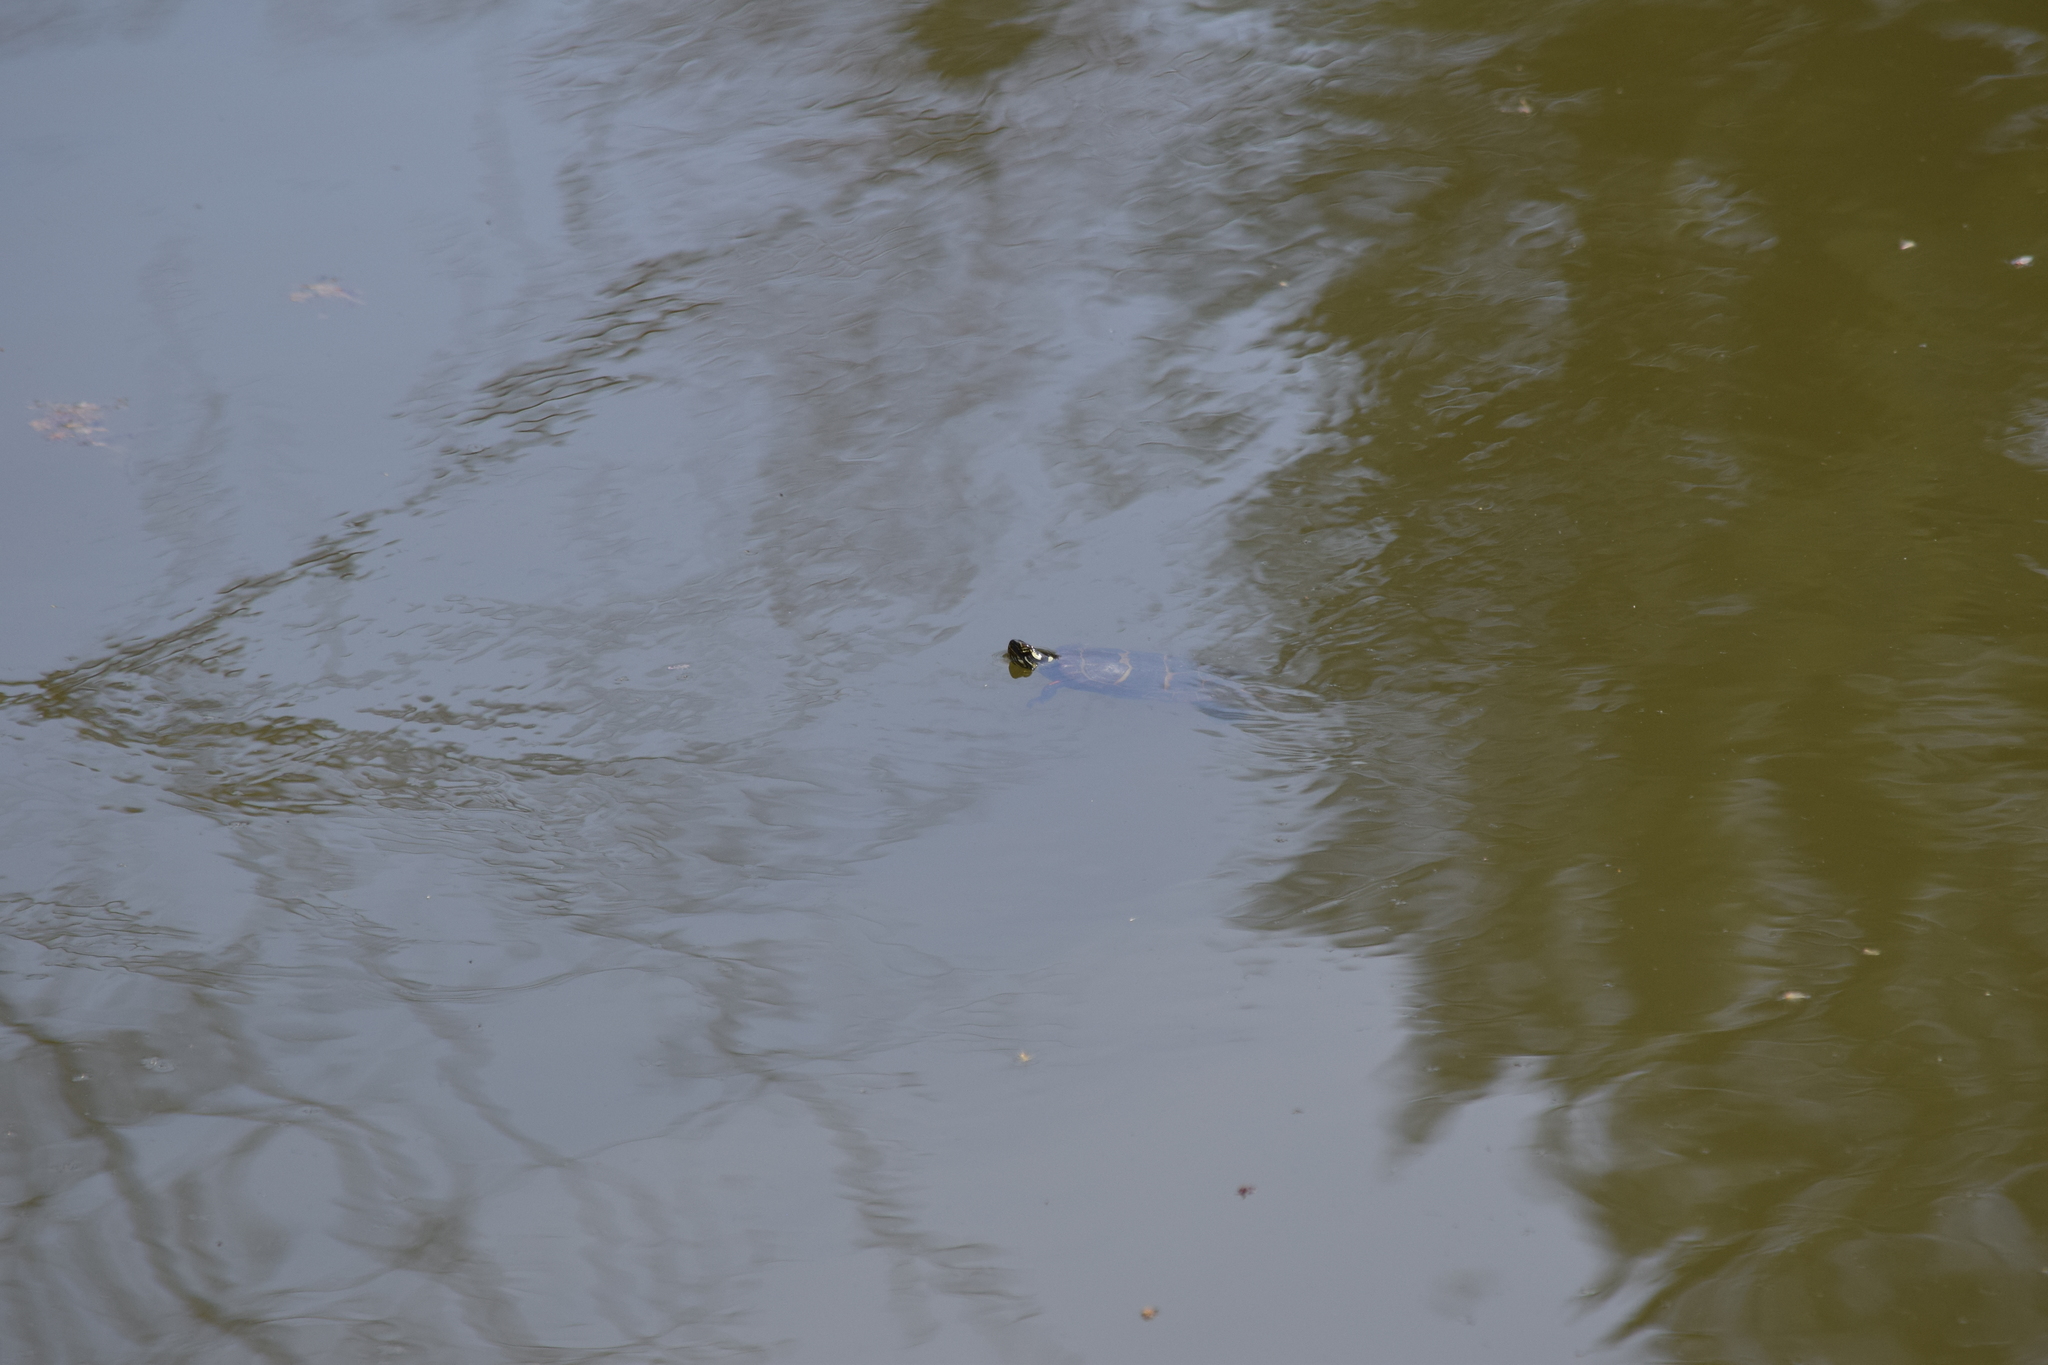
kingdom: Animalia
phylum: Chordata
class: Testudines
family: Emydidae
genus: Chrysemys
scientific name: Chrysemys picta
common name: Painted turtle
